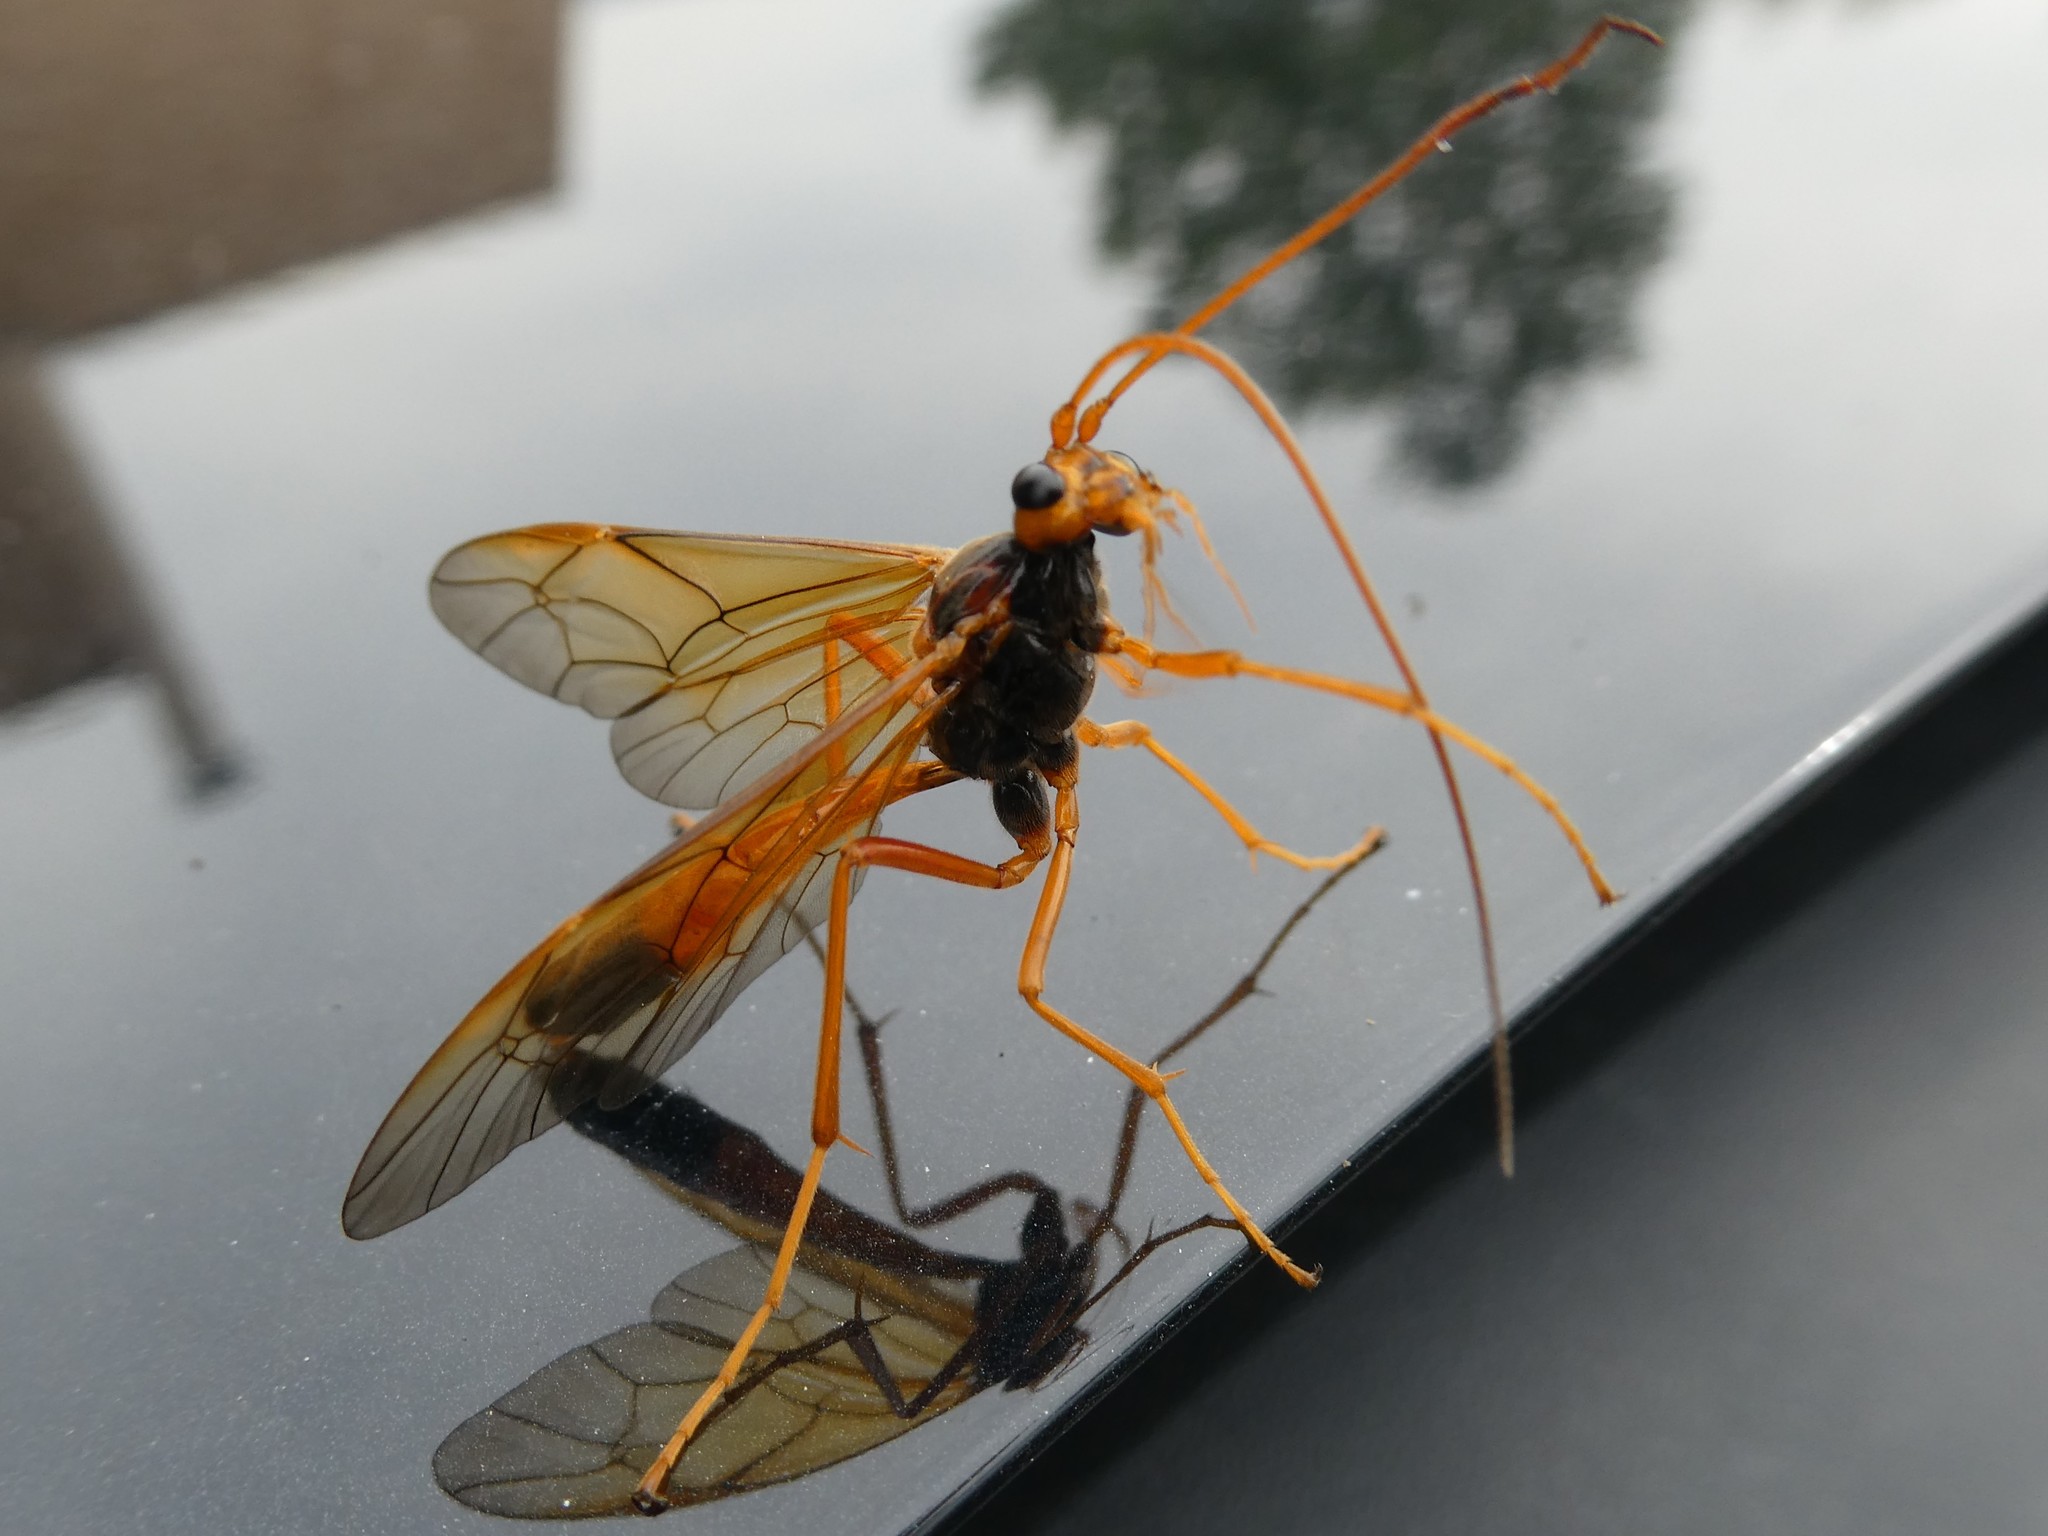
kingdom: Animalia
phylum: Arthropoda
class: Insecta
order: Hymenoptera
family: Ichneumonidae
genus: Opheltes
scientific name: Opheltes glaucopterus
